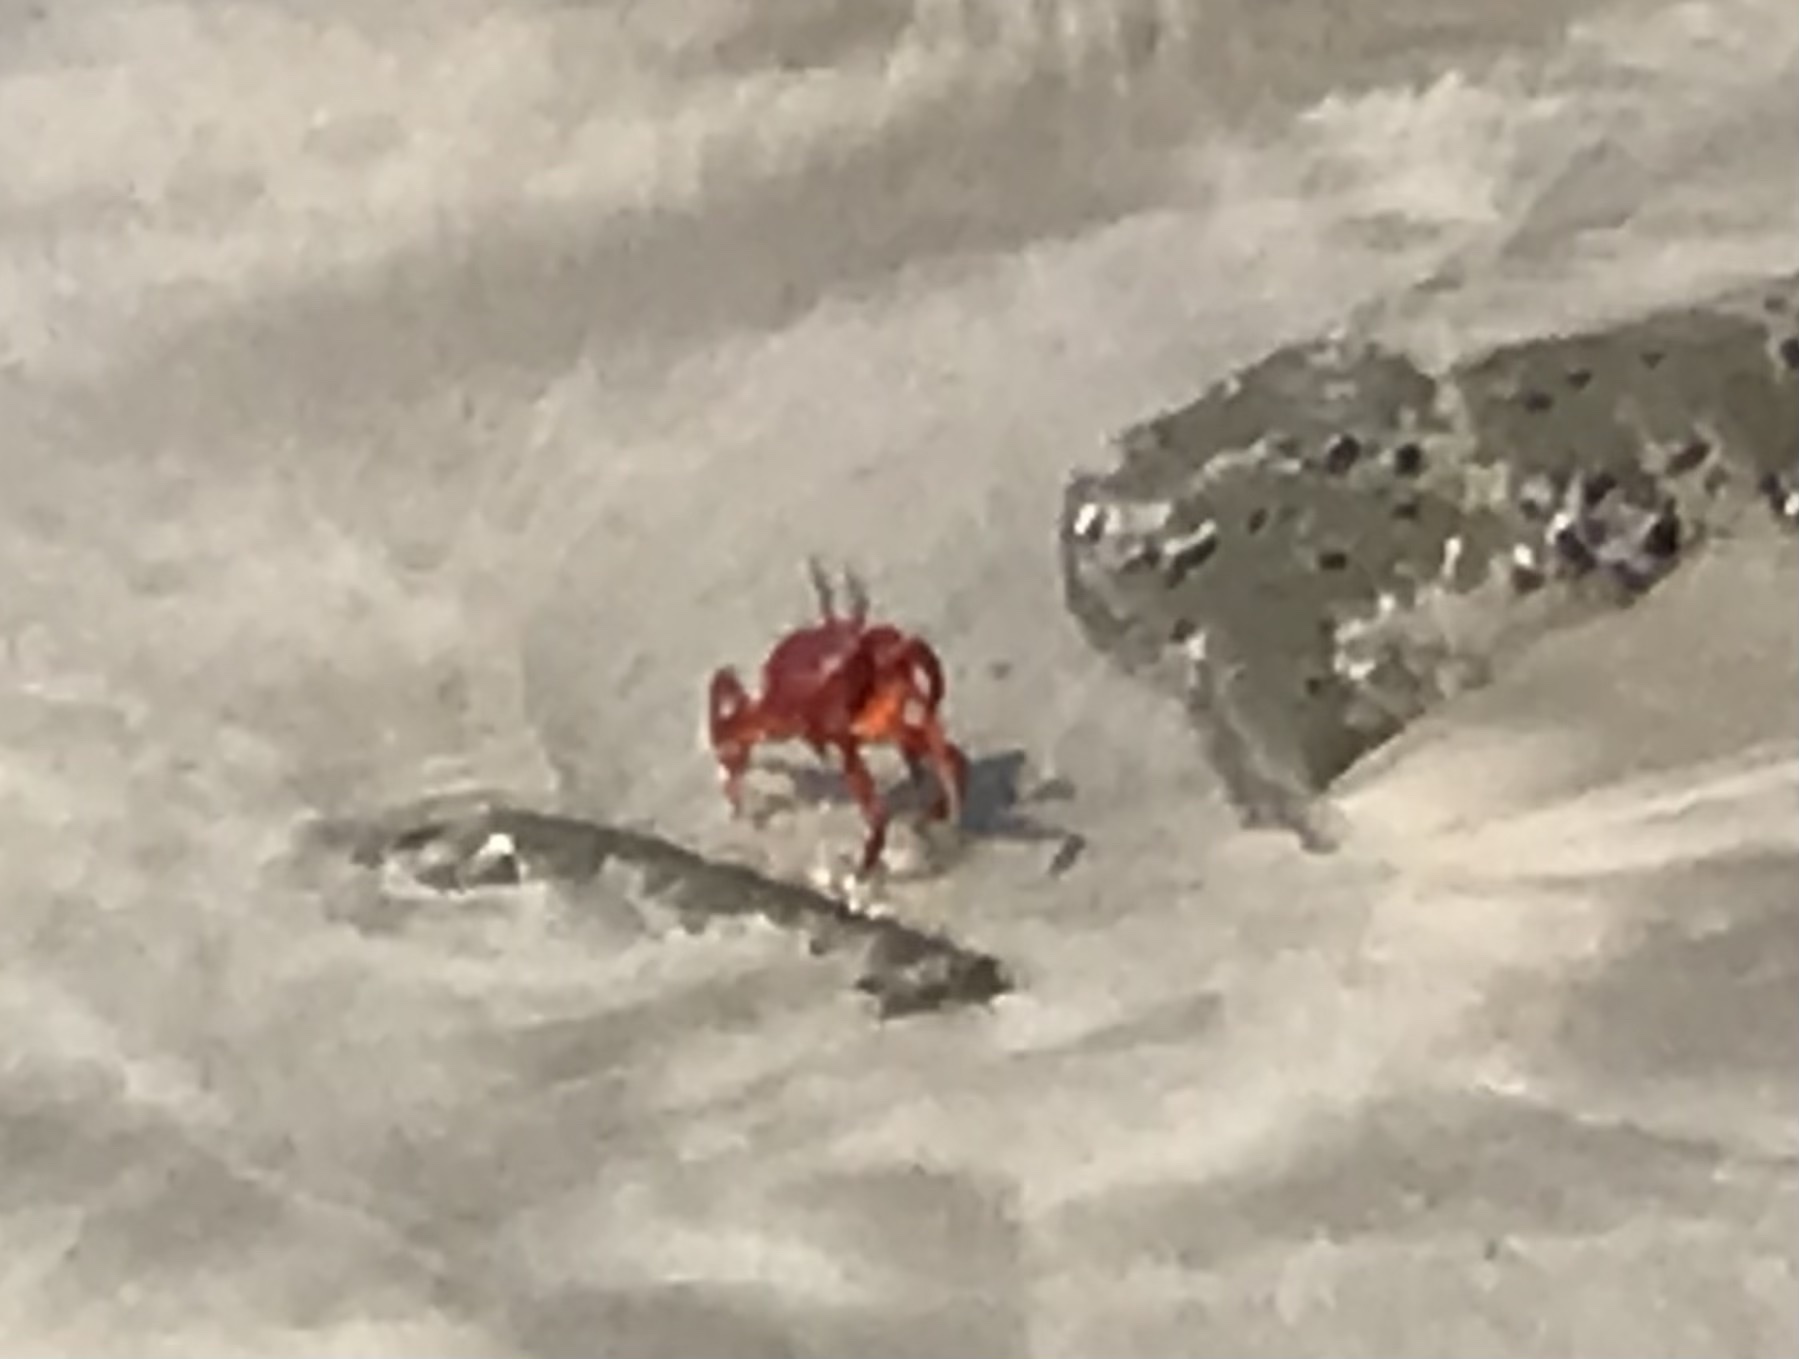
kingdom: Animalia
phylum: Arthropoda
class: Malacostraca
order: Decapoda
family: Ocypodidae
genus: Ocypode
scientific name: Ocypode macrocera
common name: Red ghost crab
